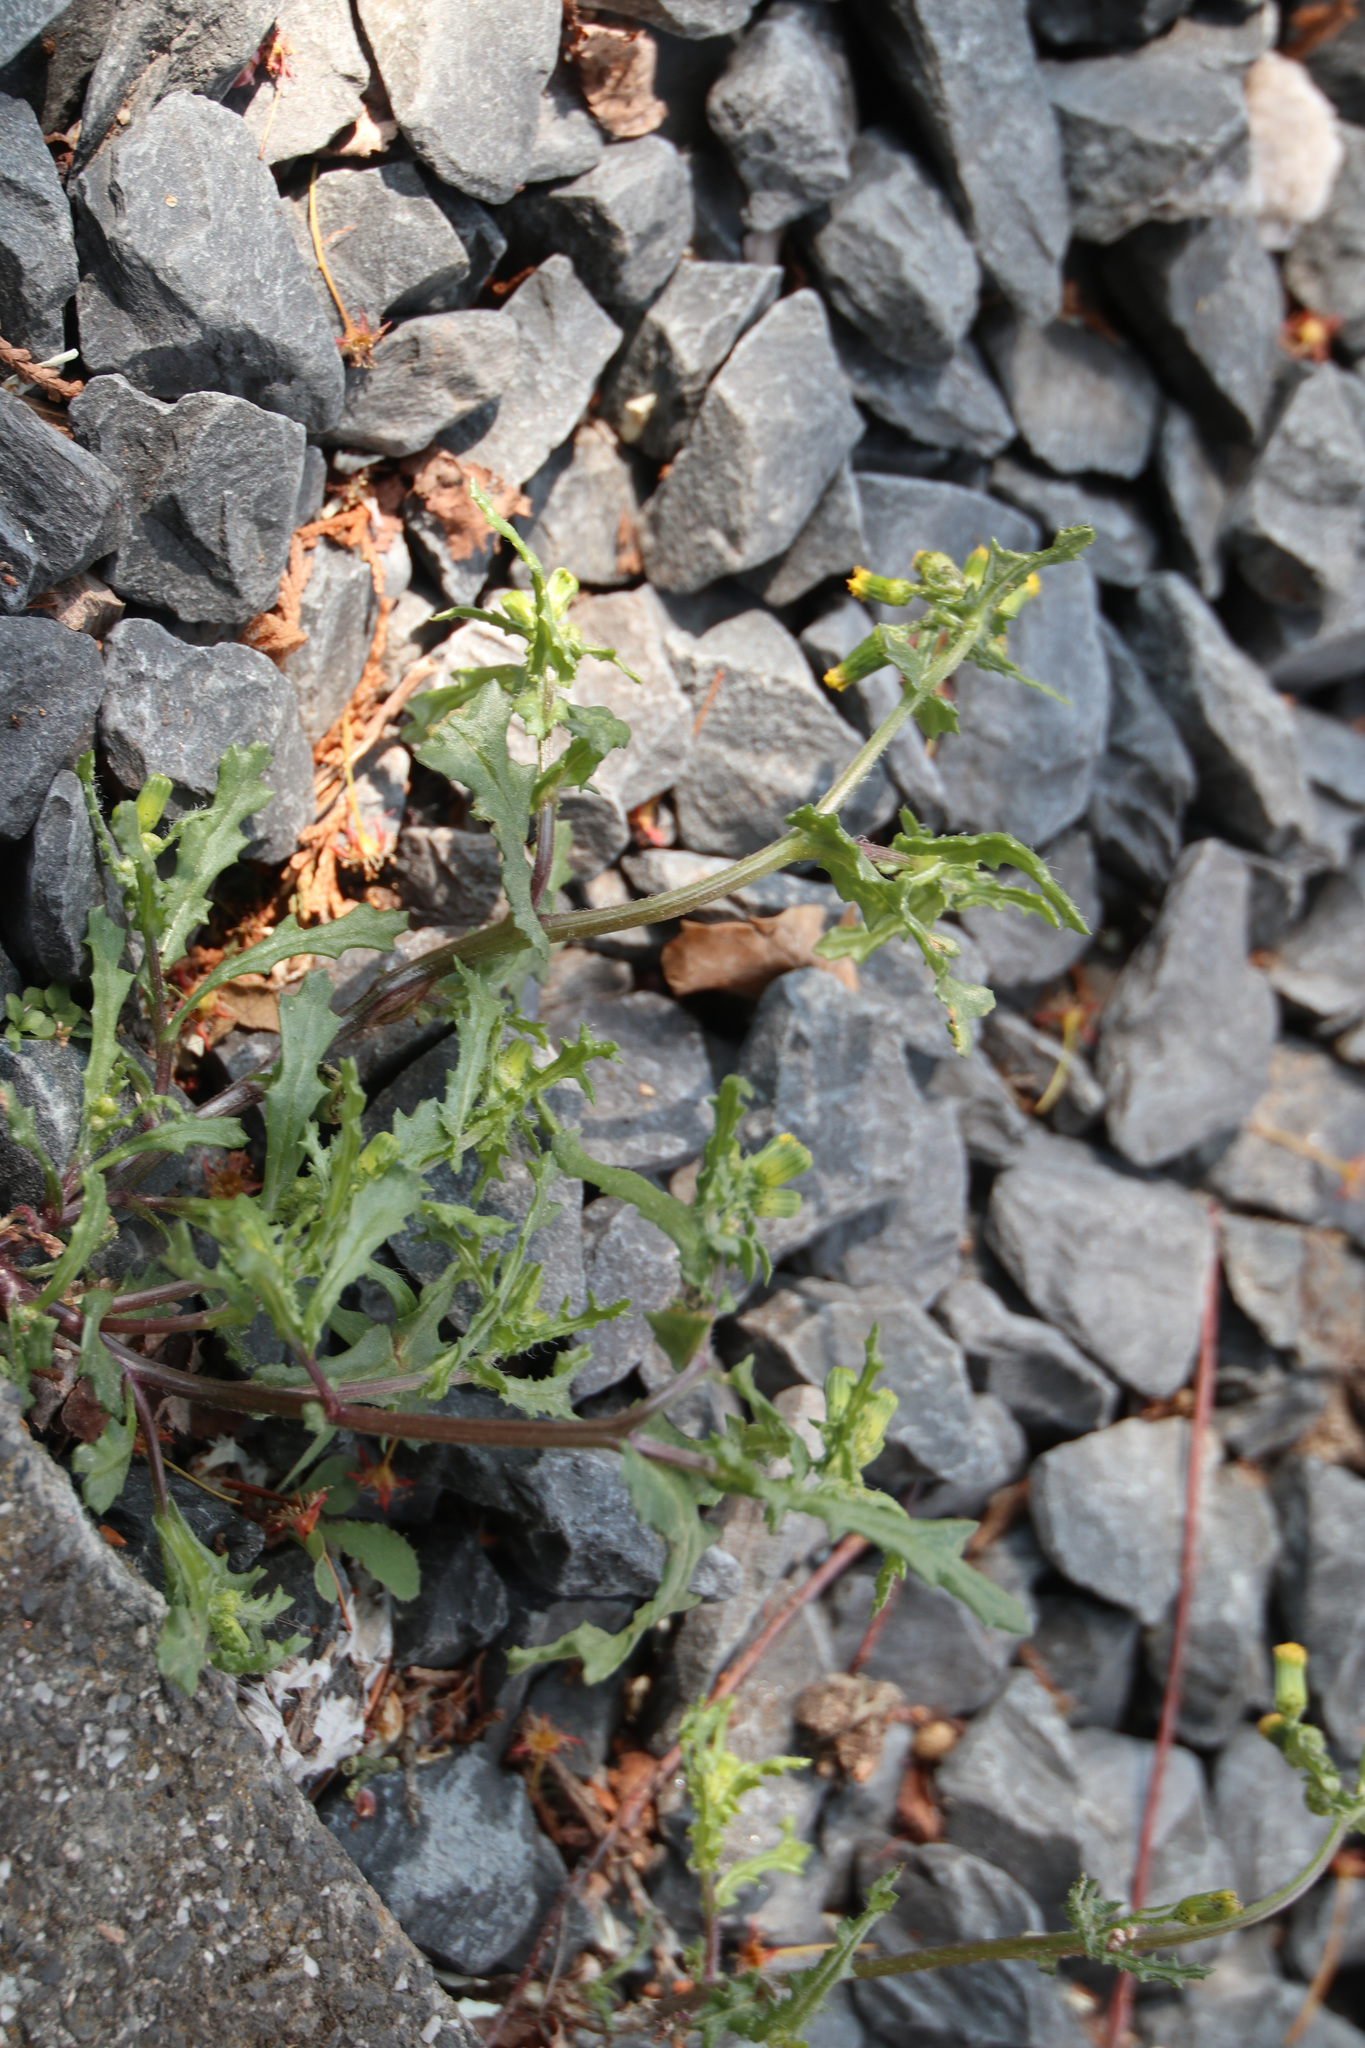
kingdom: Plantae
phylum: Tracheophyta
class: Magnoliopsida
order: Asterales
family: Asteraceae
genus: Senecio
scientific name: Senecio vulgaris
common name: Old-man-in-the-spring
